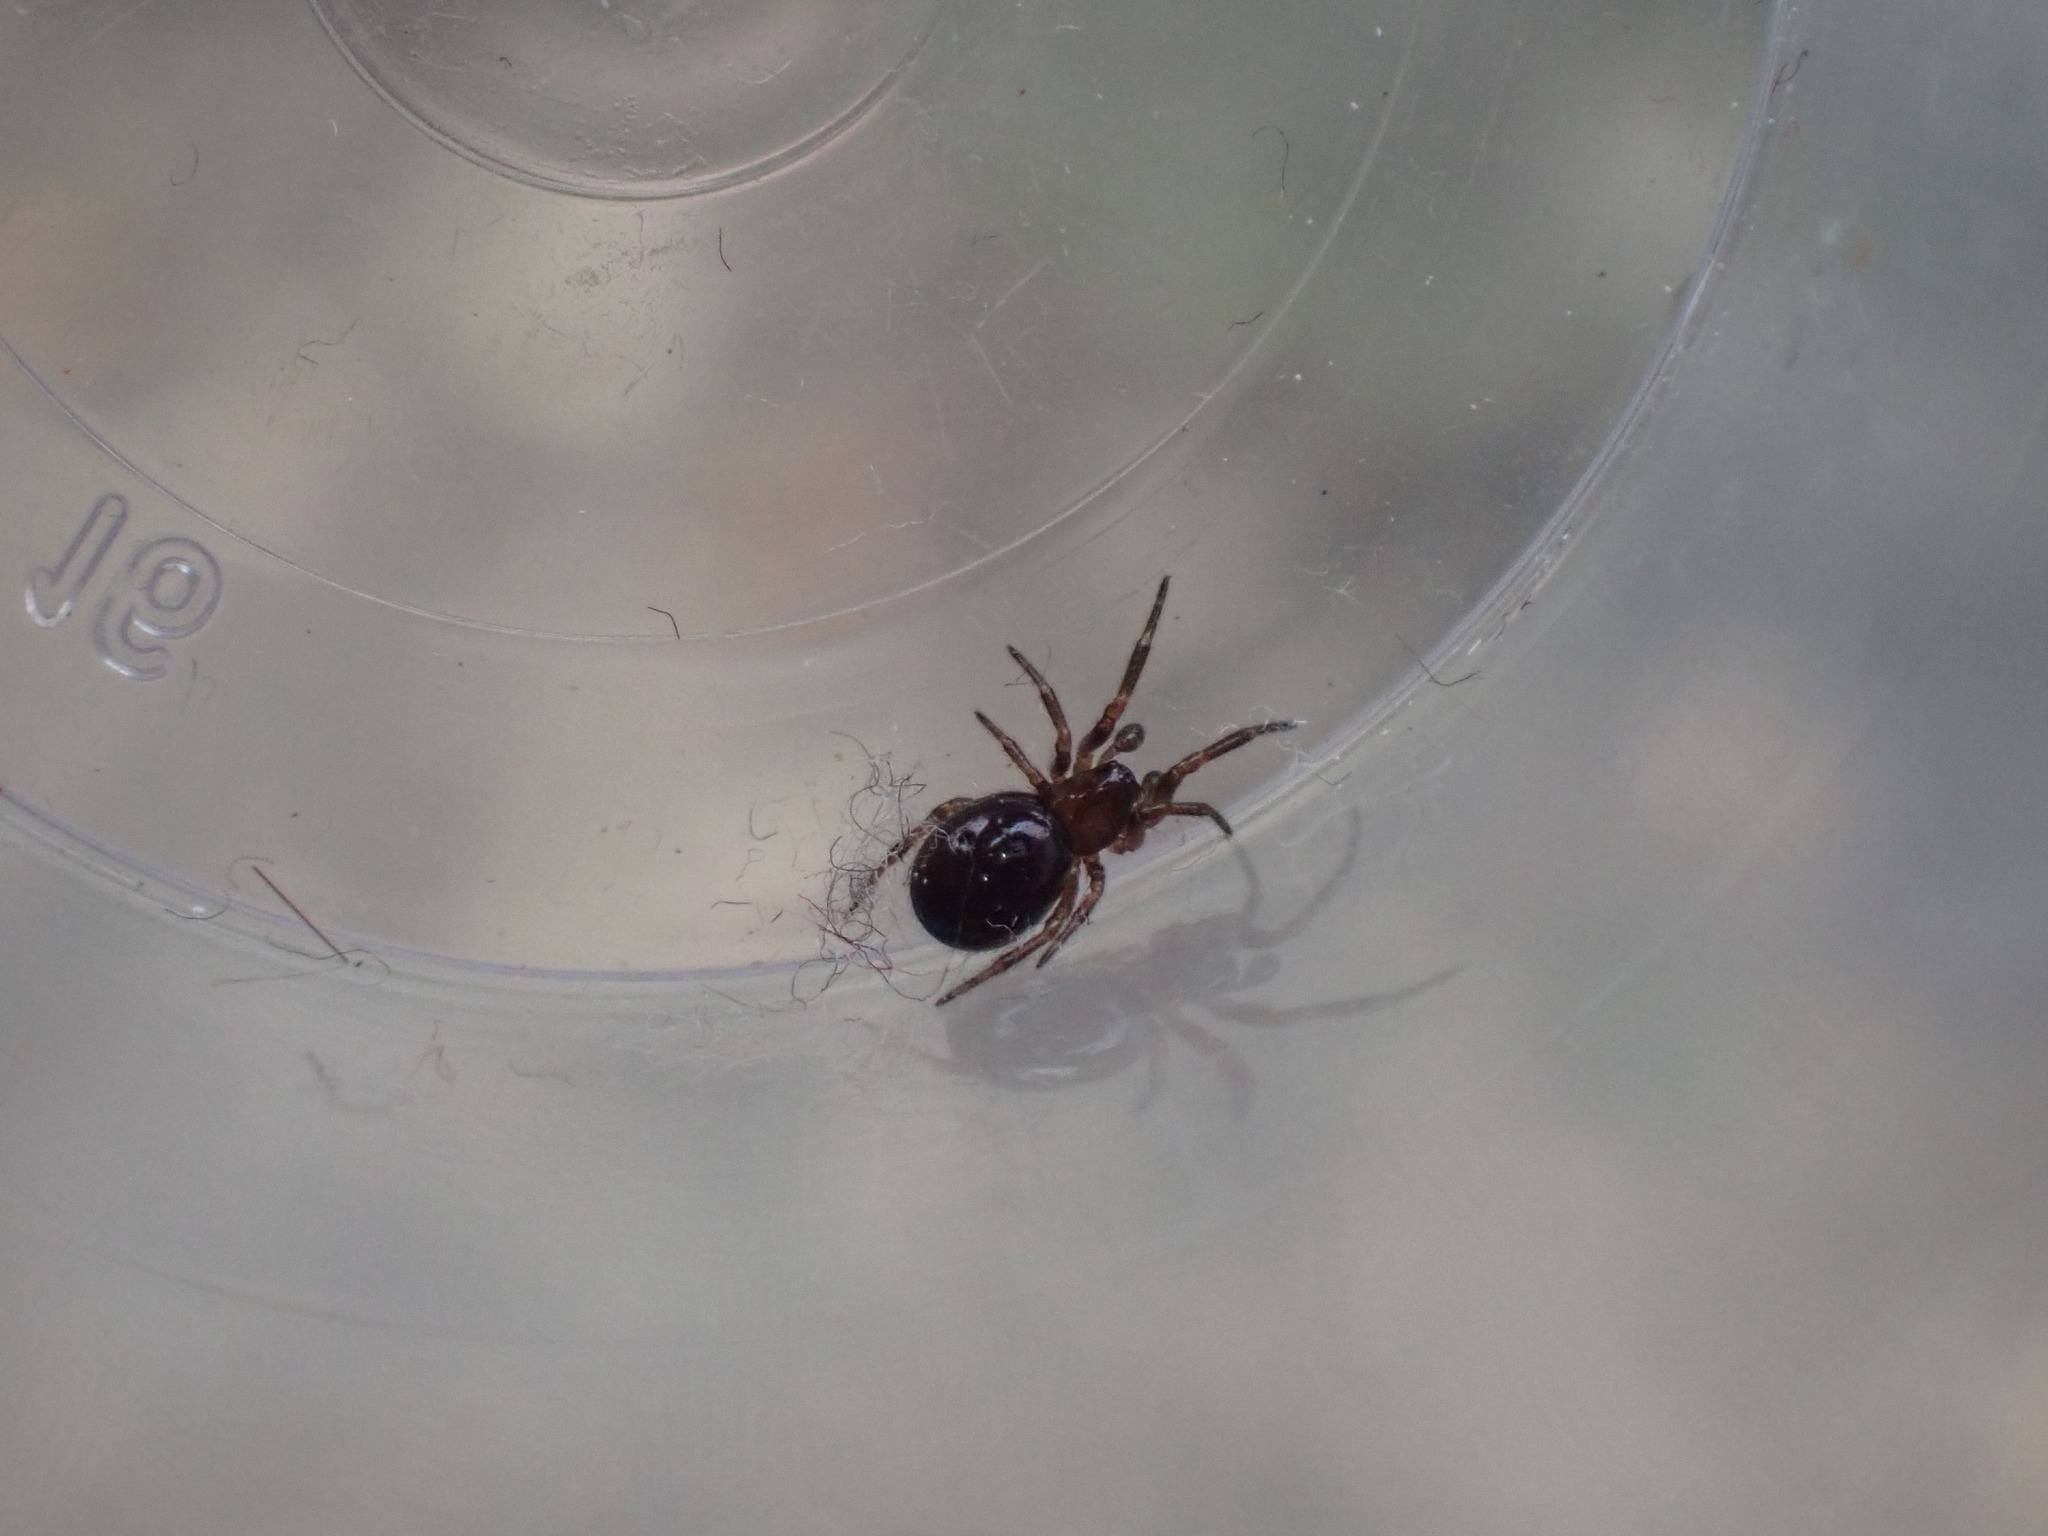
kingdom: Animalia
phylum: Arthropoda
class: Arachnida
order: Araneae
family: Theridiidae
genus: Enoplognatha
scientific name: Enoplognatha thoracica
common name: Cobweb spider
